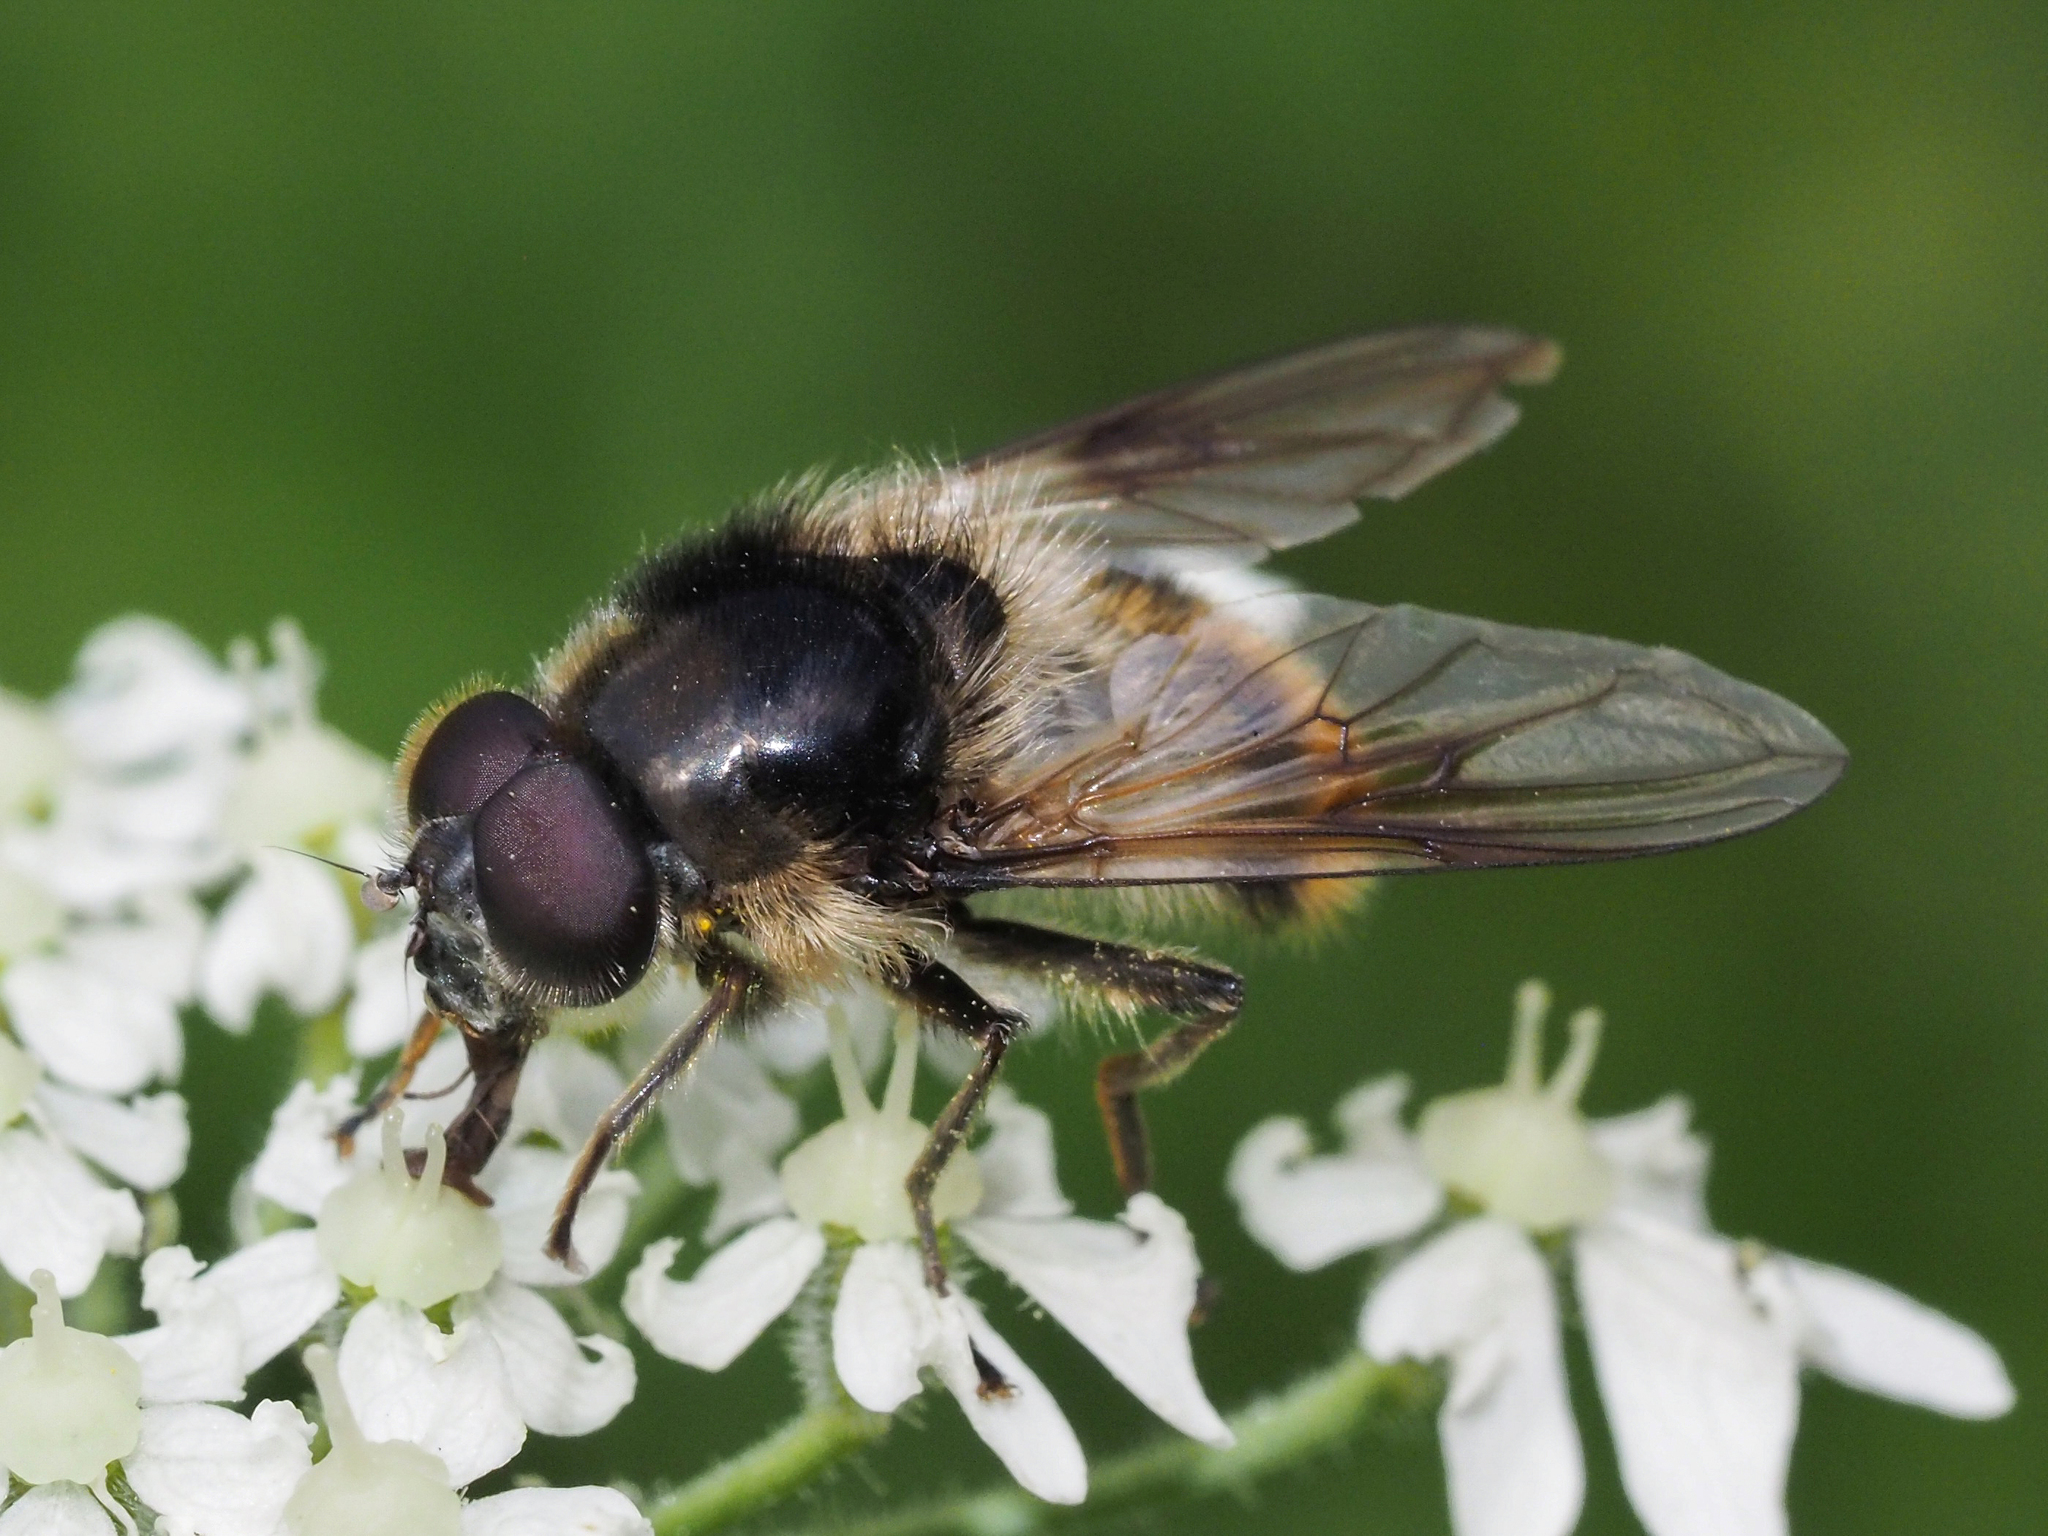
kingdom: Animalia
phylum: Arthropoda
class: Insecta
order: Diptera
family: Syrphidae
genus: Cheilosia
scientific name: Cheilosia illustrata
